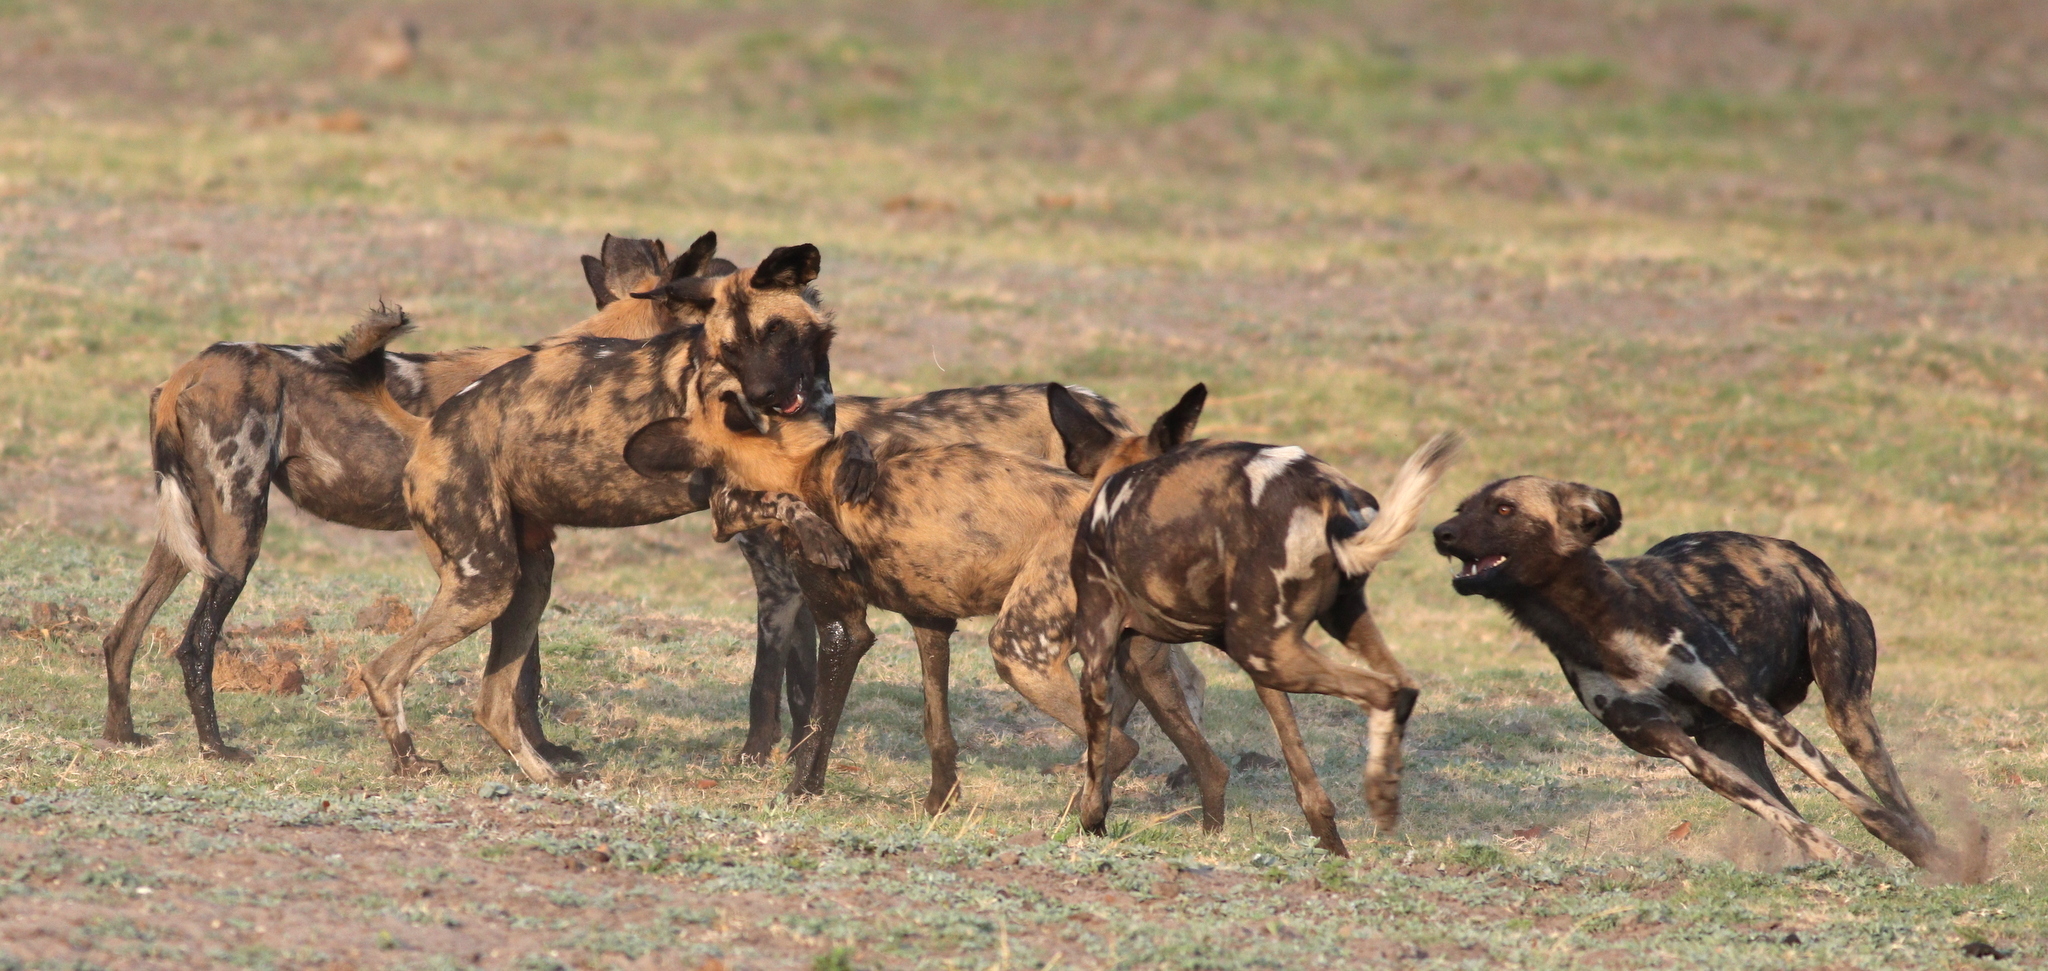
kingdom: Animalia
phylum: Chordata
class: Mammalia
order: Carnivora
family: Canidae
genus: Lycaon
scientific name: Lycaon pictus
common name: African wild dog
